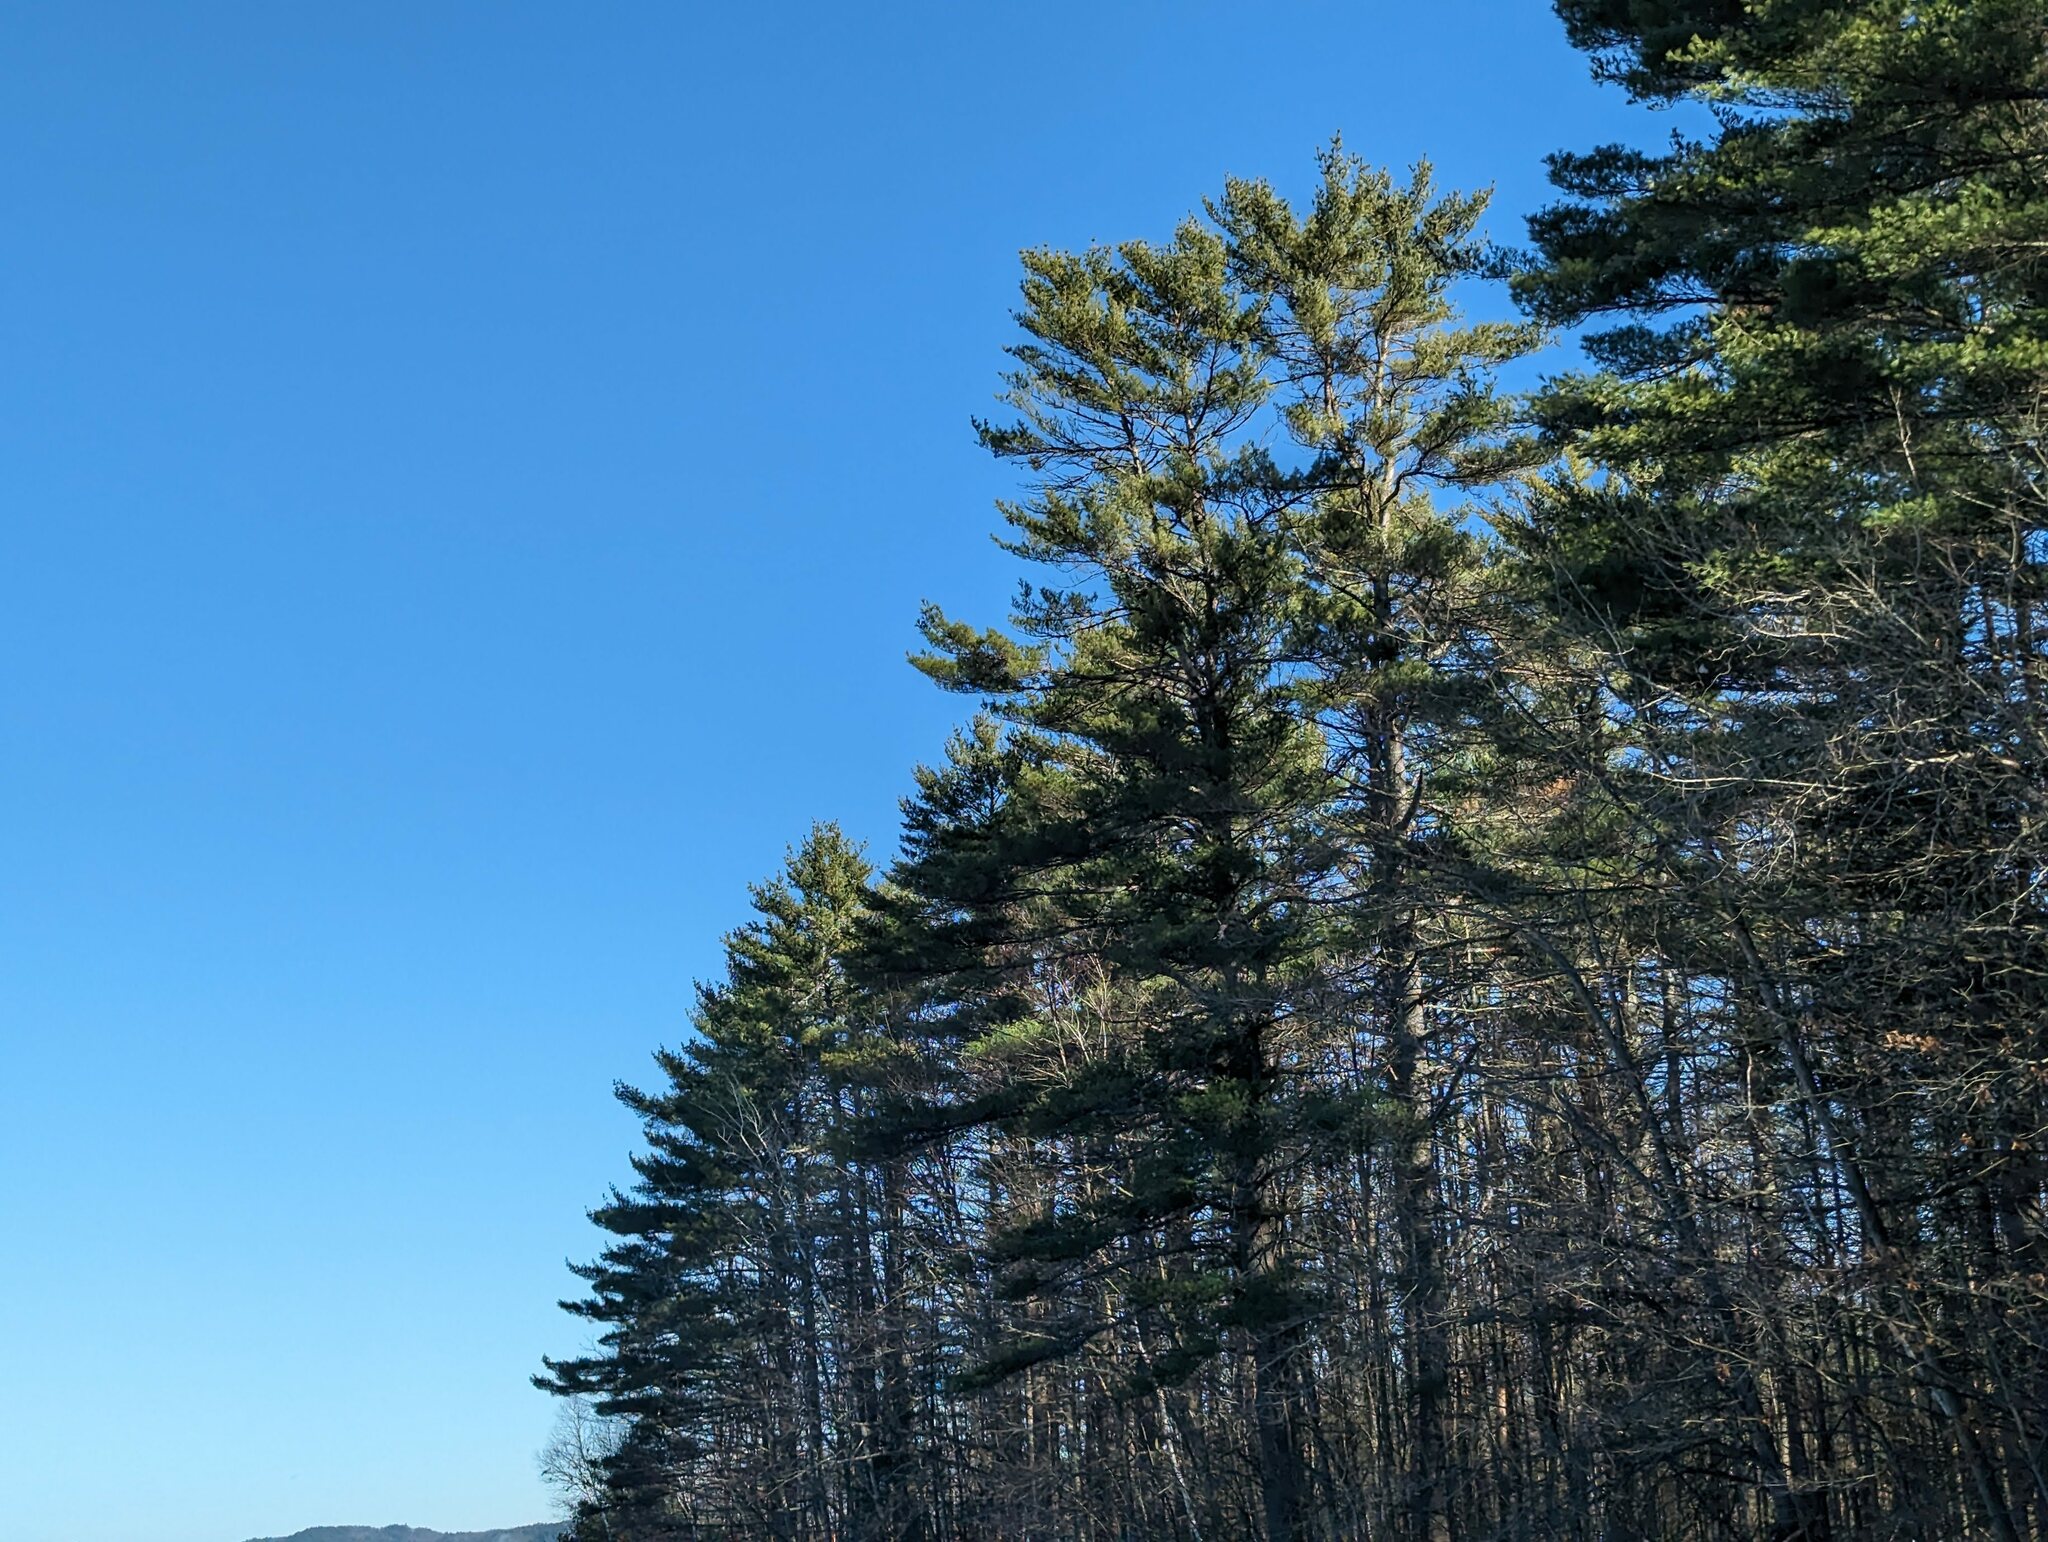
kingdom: Plantae
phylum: Tracheophyta
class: Pinopsida
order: Pinales
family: Pinaceae
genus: Pinus
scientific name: Pinus strobus
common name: Weymouth pine
